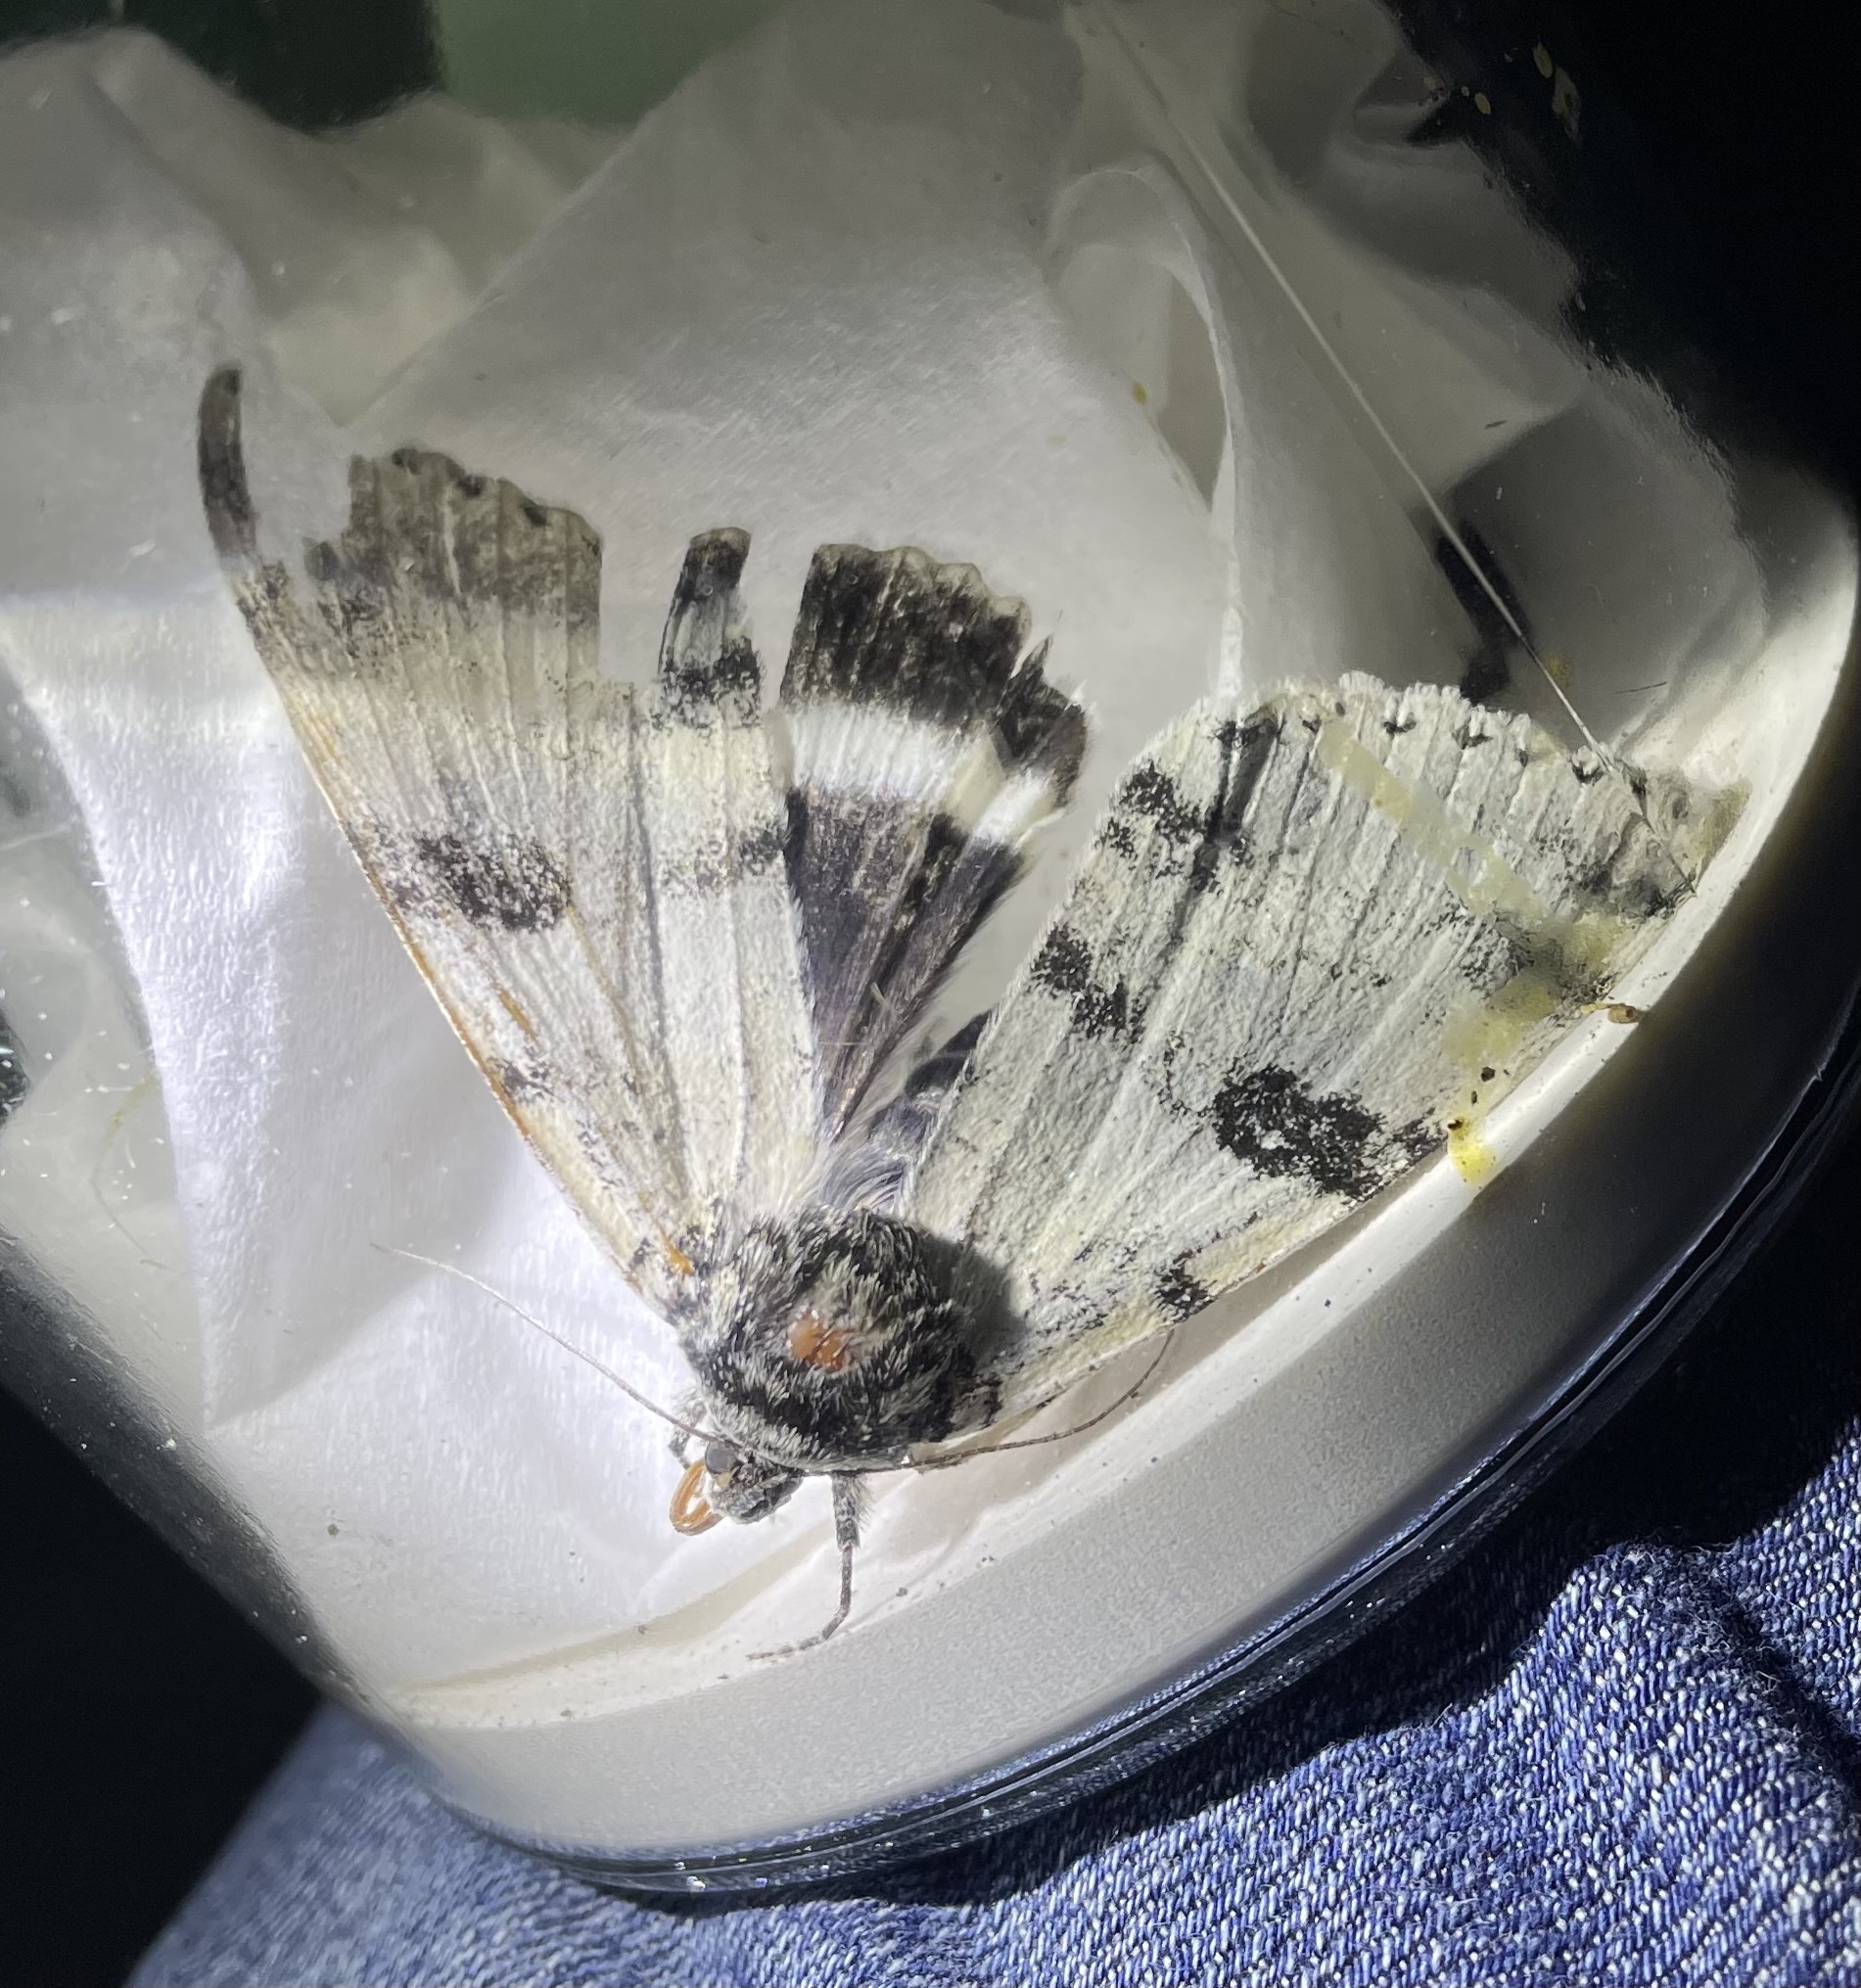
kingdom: Animalia
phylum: Arthropoda
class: Insecta
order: Lepidoptera
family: Erebidae
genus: Catocala
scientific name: Catocala relicta
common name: White underwing
